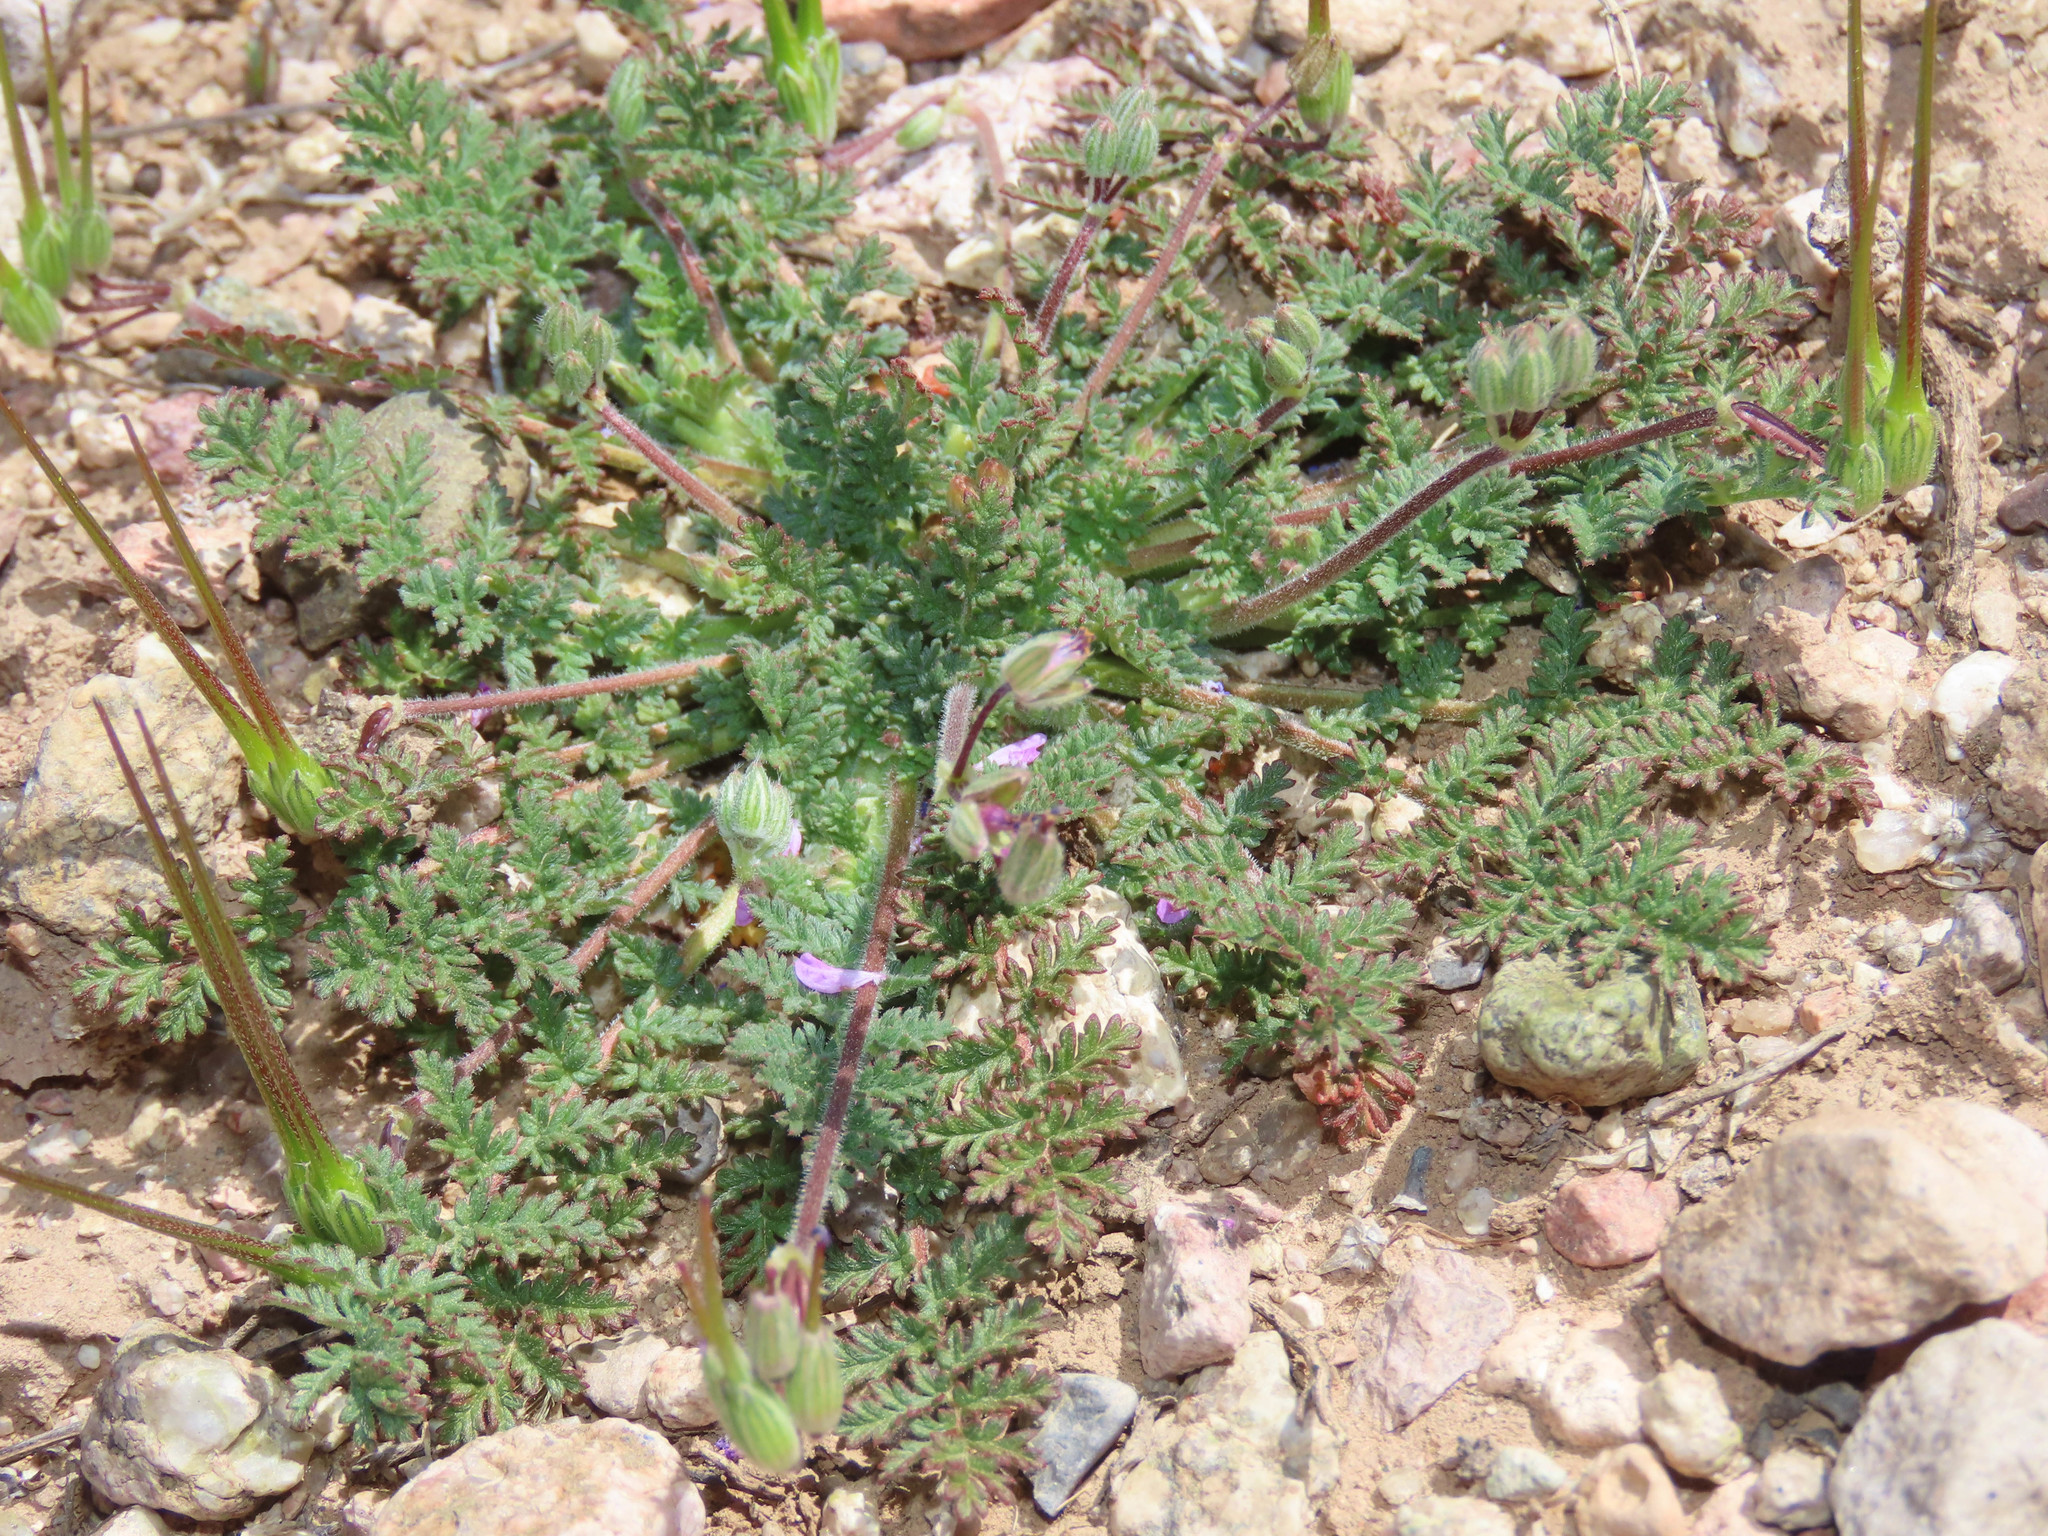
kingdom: Plantae
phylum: Tracheophyta
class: Magnoliopsida
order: Geraniales
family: Geraniaceae
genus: Erodium
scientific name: Erodium cicutarium
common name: Common stork's-bill
